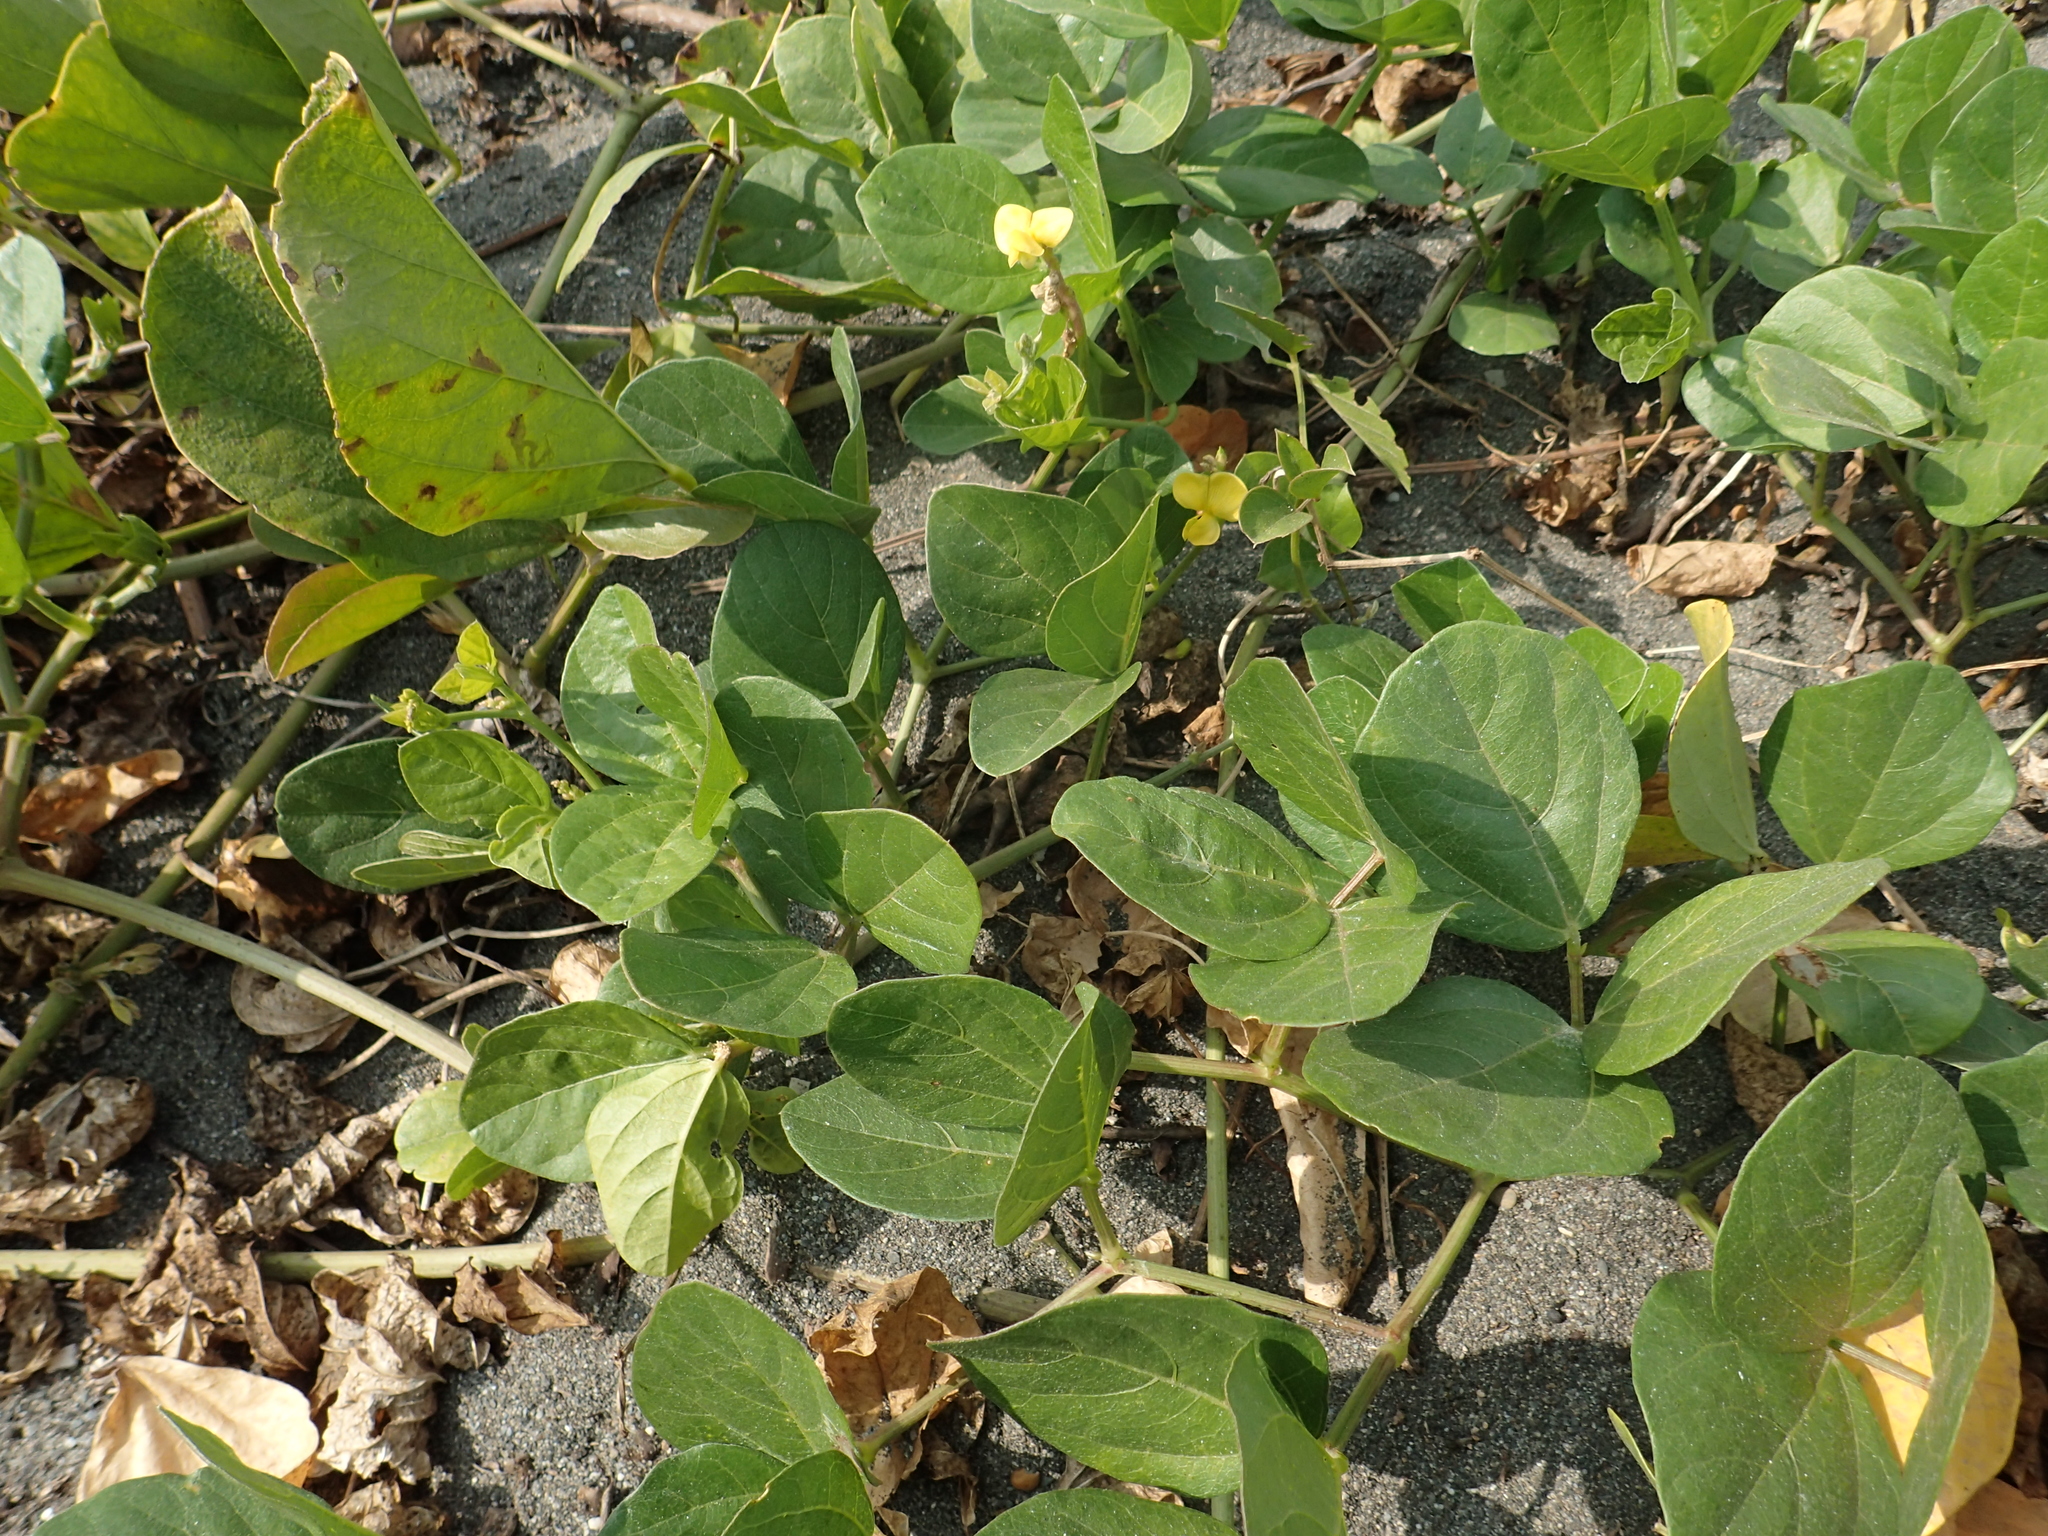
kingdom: Plantae
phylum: Tracheophyta
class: Magnoliopsida
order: Fabales
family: Fabaceae
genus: Vigna
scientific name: Vigna marina
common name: Dune-bean
